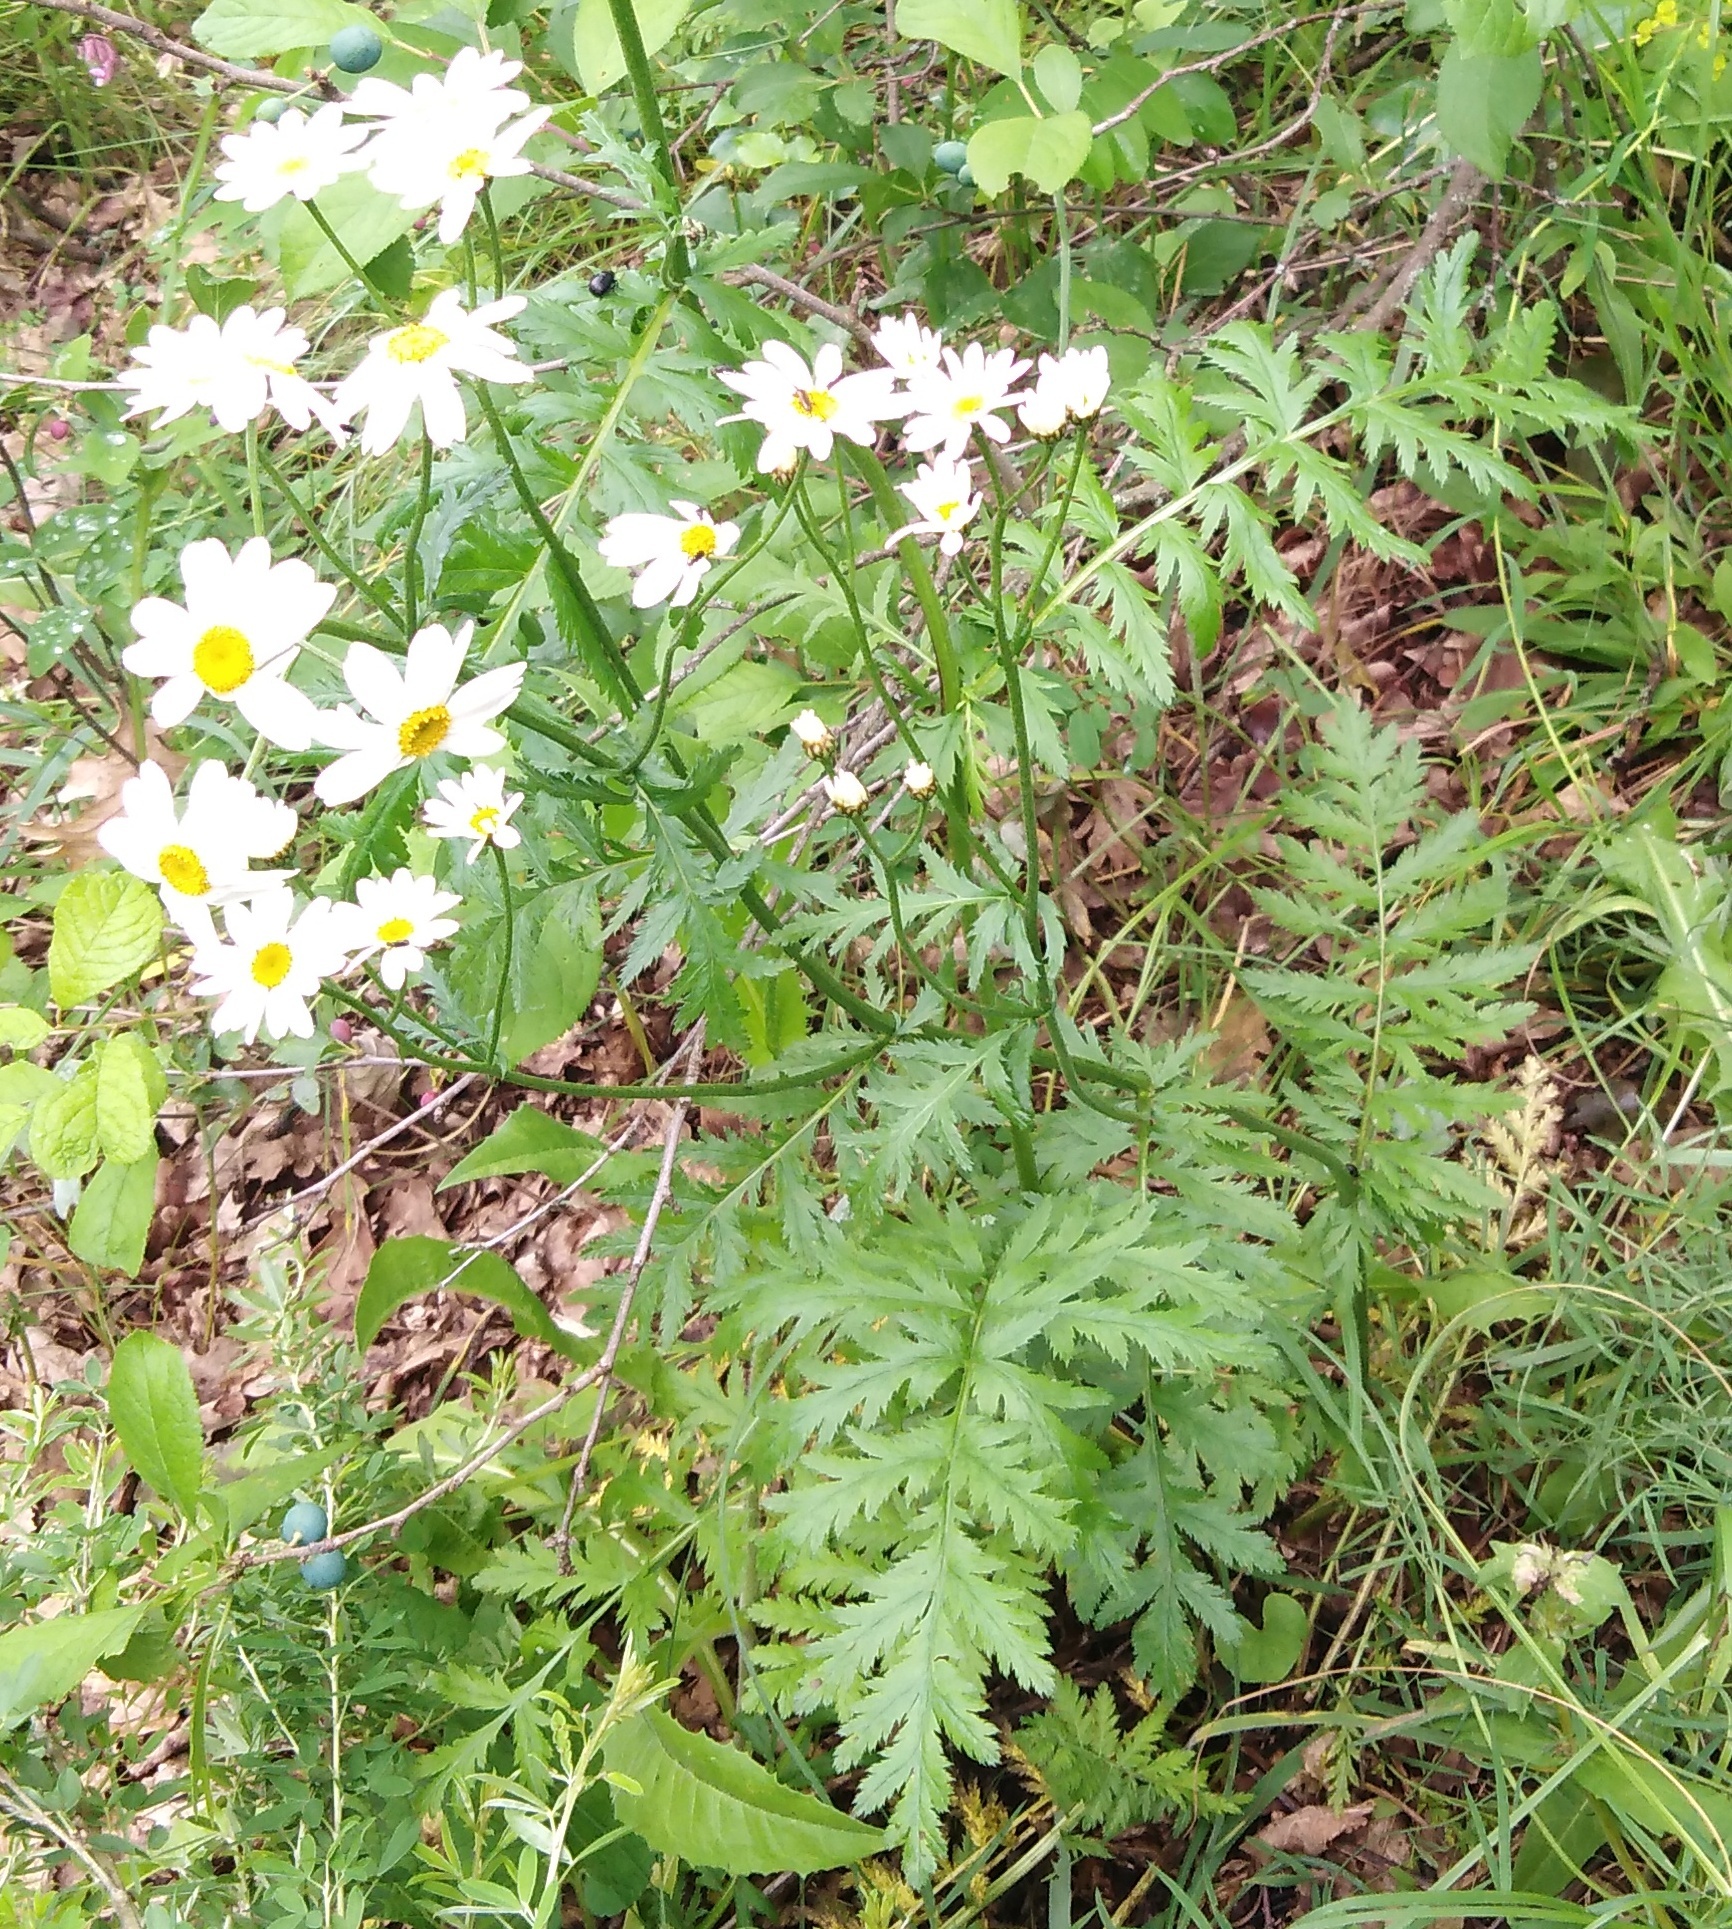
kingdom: Plantae
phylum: Tracheophyta
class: Magnoliopsida
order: Asterales
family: Asteraceae
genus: Tanacetum
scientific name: Tanacetum corymbosum
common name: Scentless feverfew
